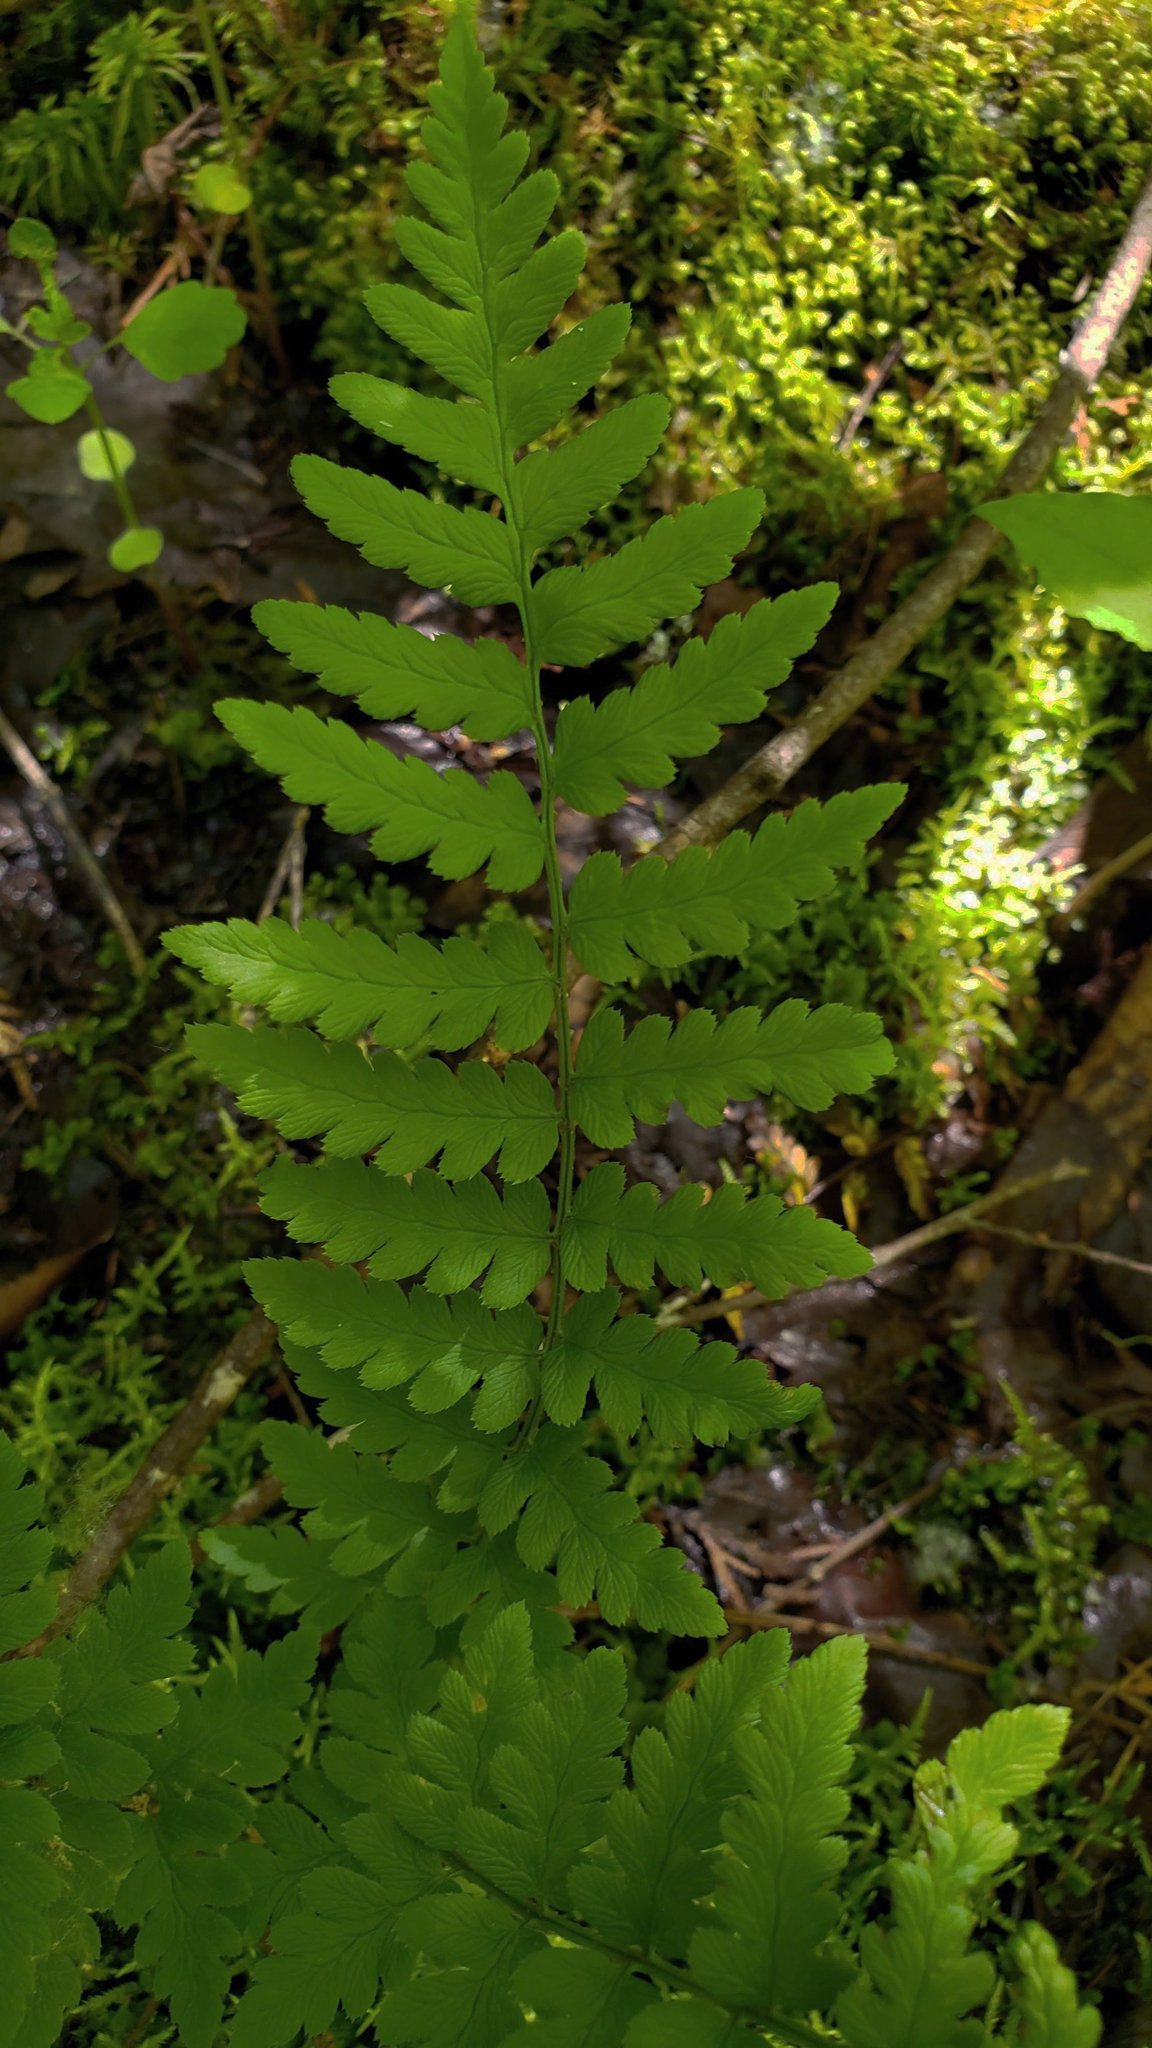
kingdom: Plantae
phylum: Tracheophyta
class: Polypodiopsida
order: Polypodiales
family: Dryopteridaceae
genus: Dryopteris
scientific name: Dryopteris cristata
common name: Crested wood fern
